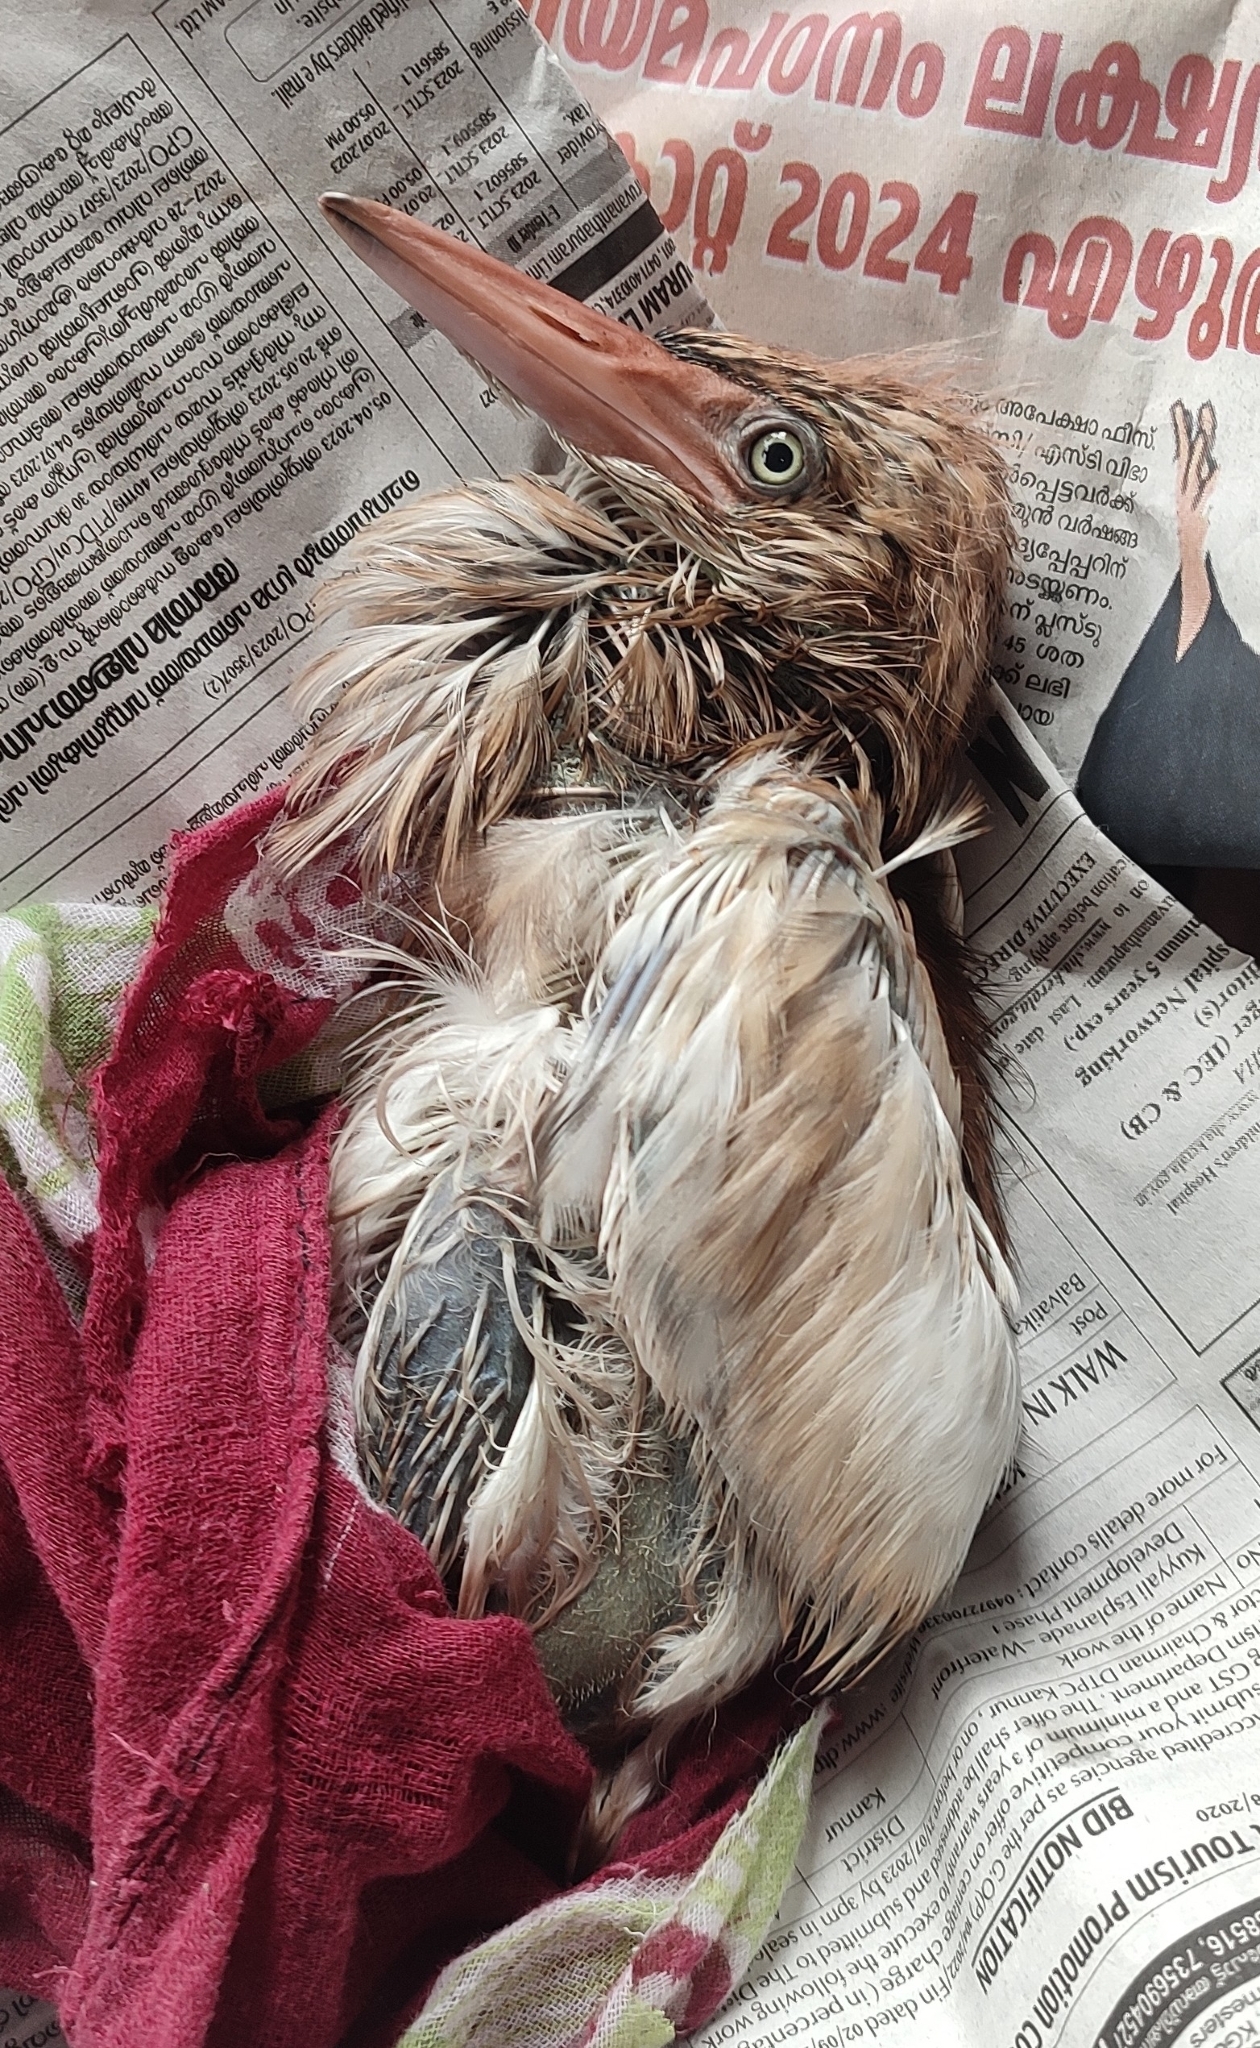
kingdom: Animalia
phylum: Chordata
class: Aves
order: Pelecaniformes
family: Ardeidae
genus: Ardeola
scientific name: Ardeola grayii
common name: Indian pond heron
